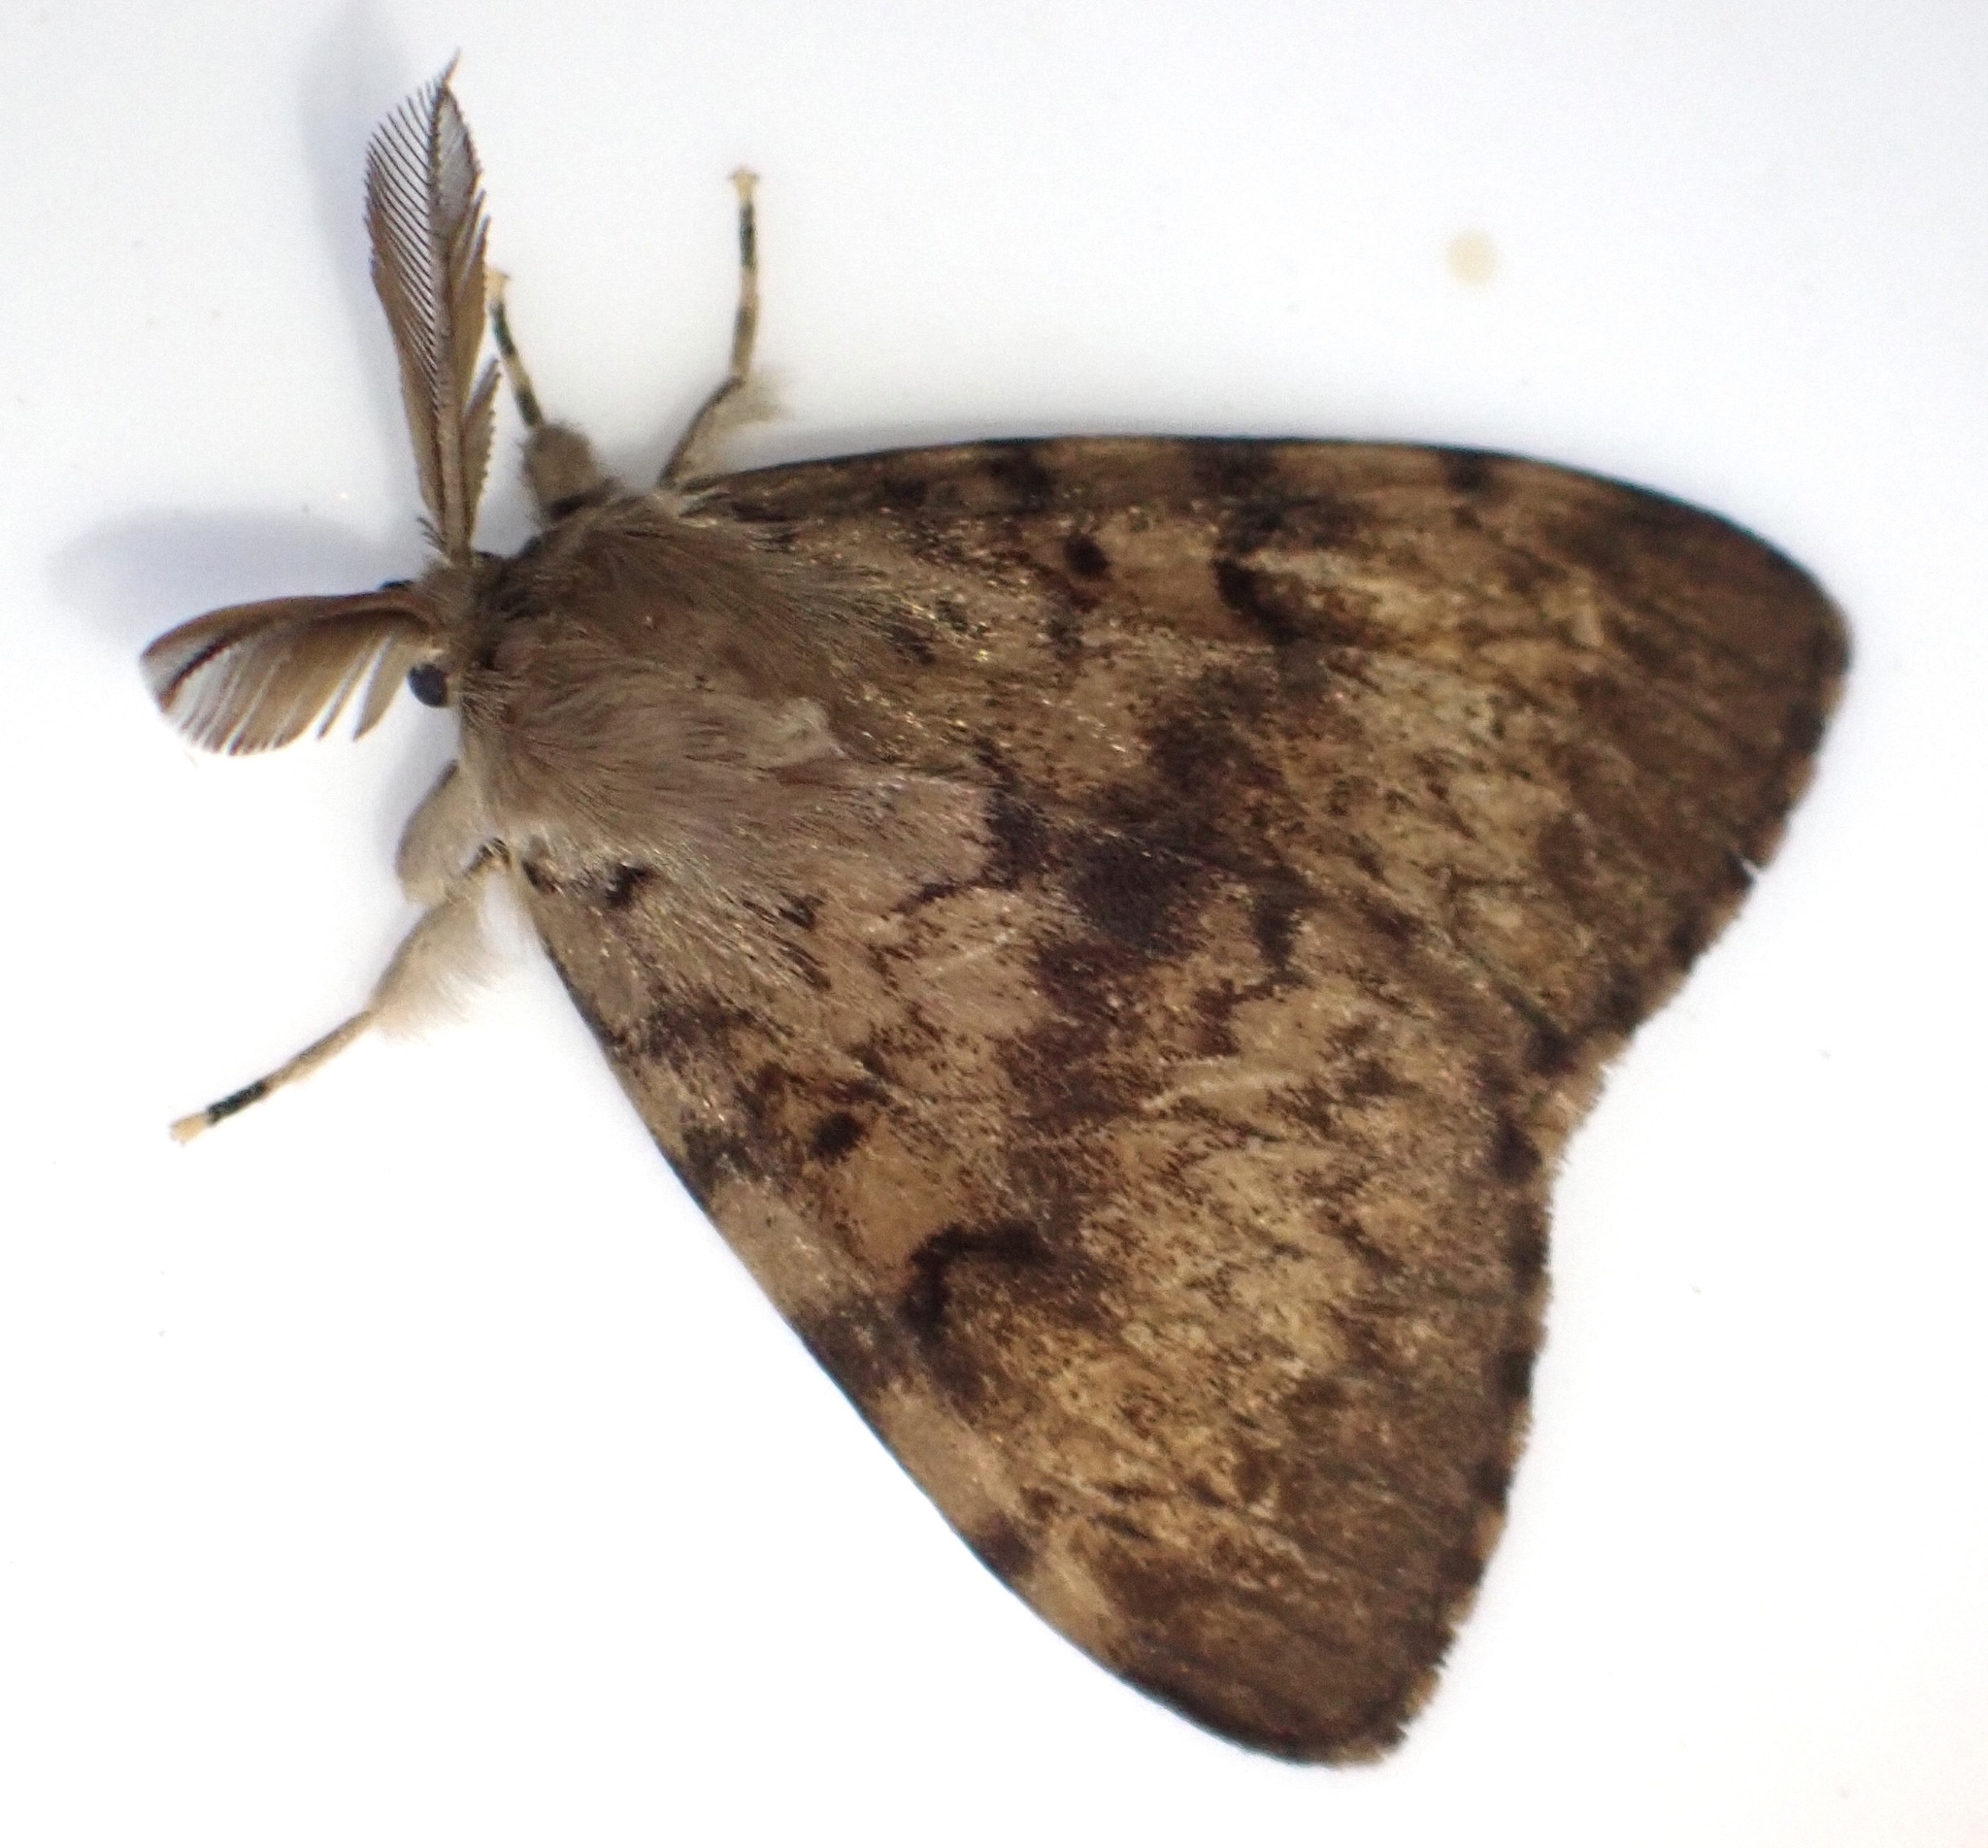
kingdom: Animalia
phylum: Arthropoda
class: Insecta
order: Lepidoptera
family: Erebidae
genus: Lymantria
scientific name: Lymantria dispar
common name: Gypsy moth
